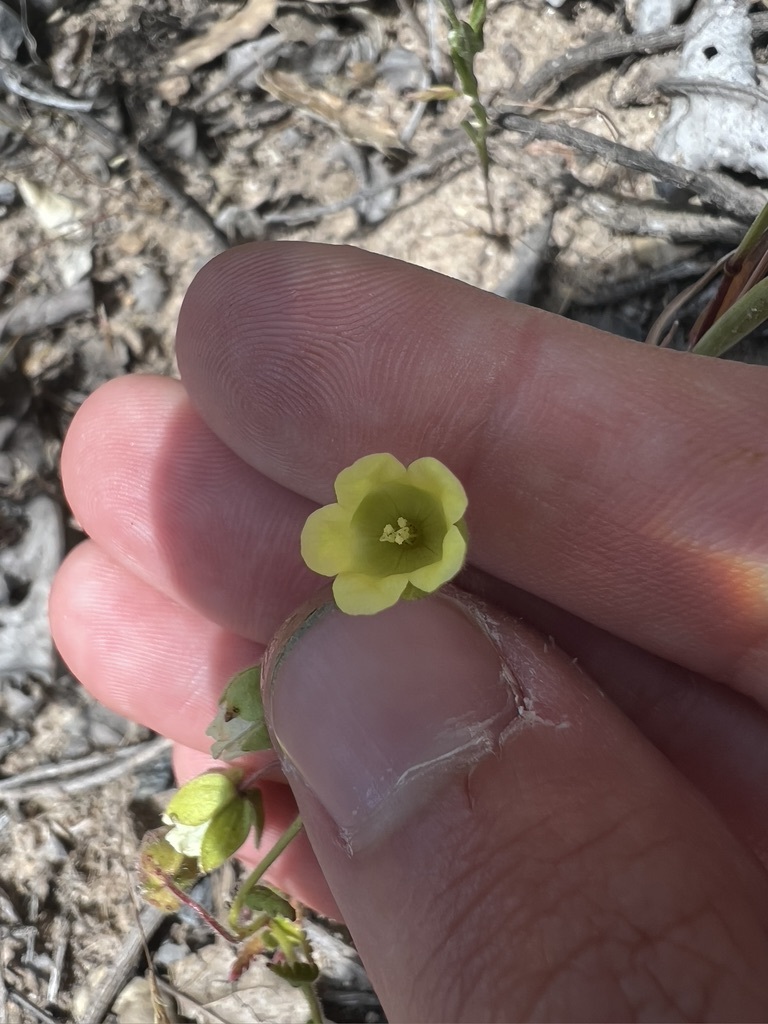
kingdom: Plantae
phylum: Tracheophyta
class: Magnoliopsida
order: Boraginales
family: Hydrophyllaceae
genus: Emmenanthe
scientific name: Emmenanthe penduliflora
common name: Whispering-bells
